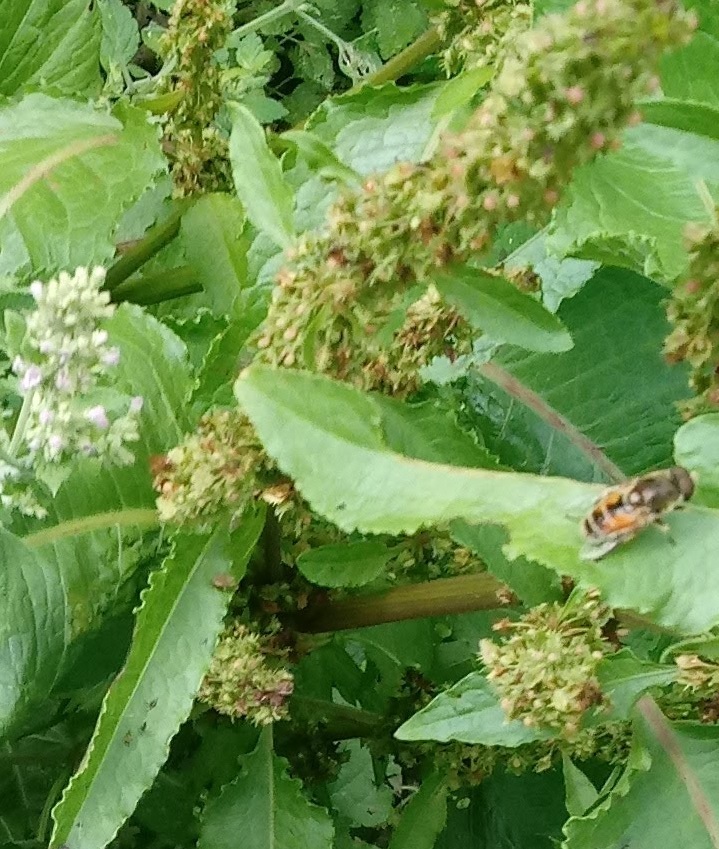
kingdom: Animalia
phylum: Arthropoda
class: Insecta
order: Diptera
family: Syrphidae
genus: Eristalis
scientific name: Eristalis arbustorum
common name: Hover fly
